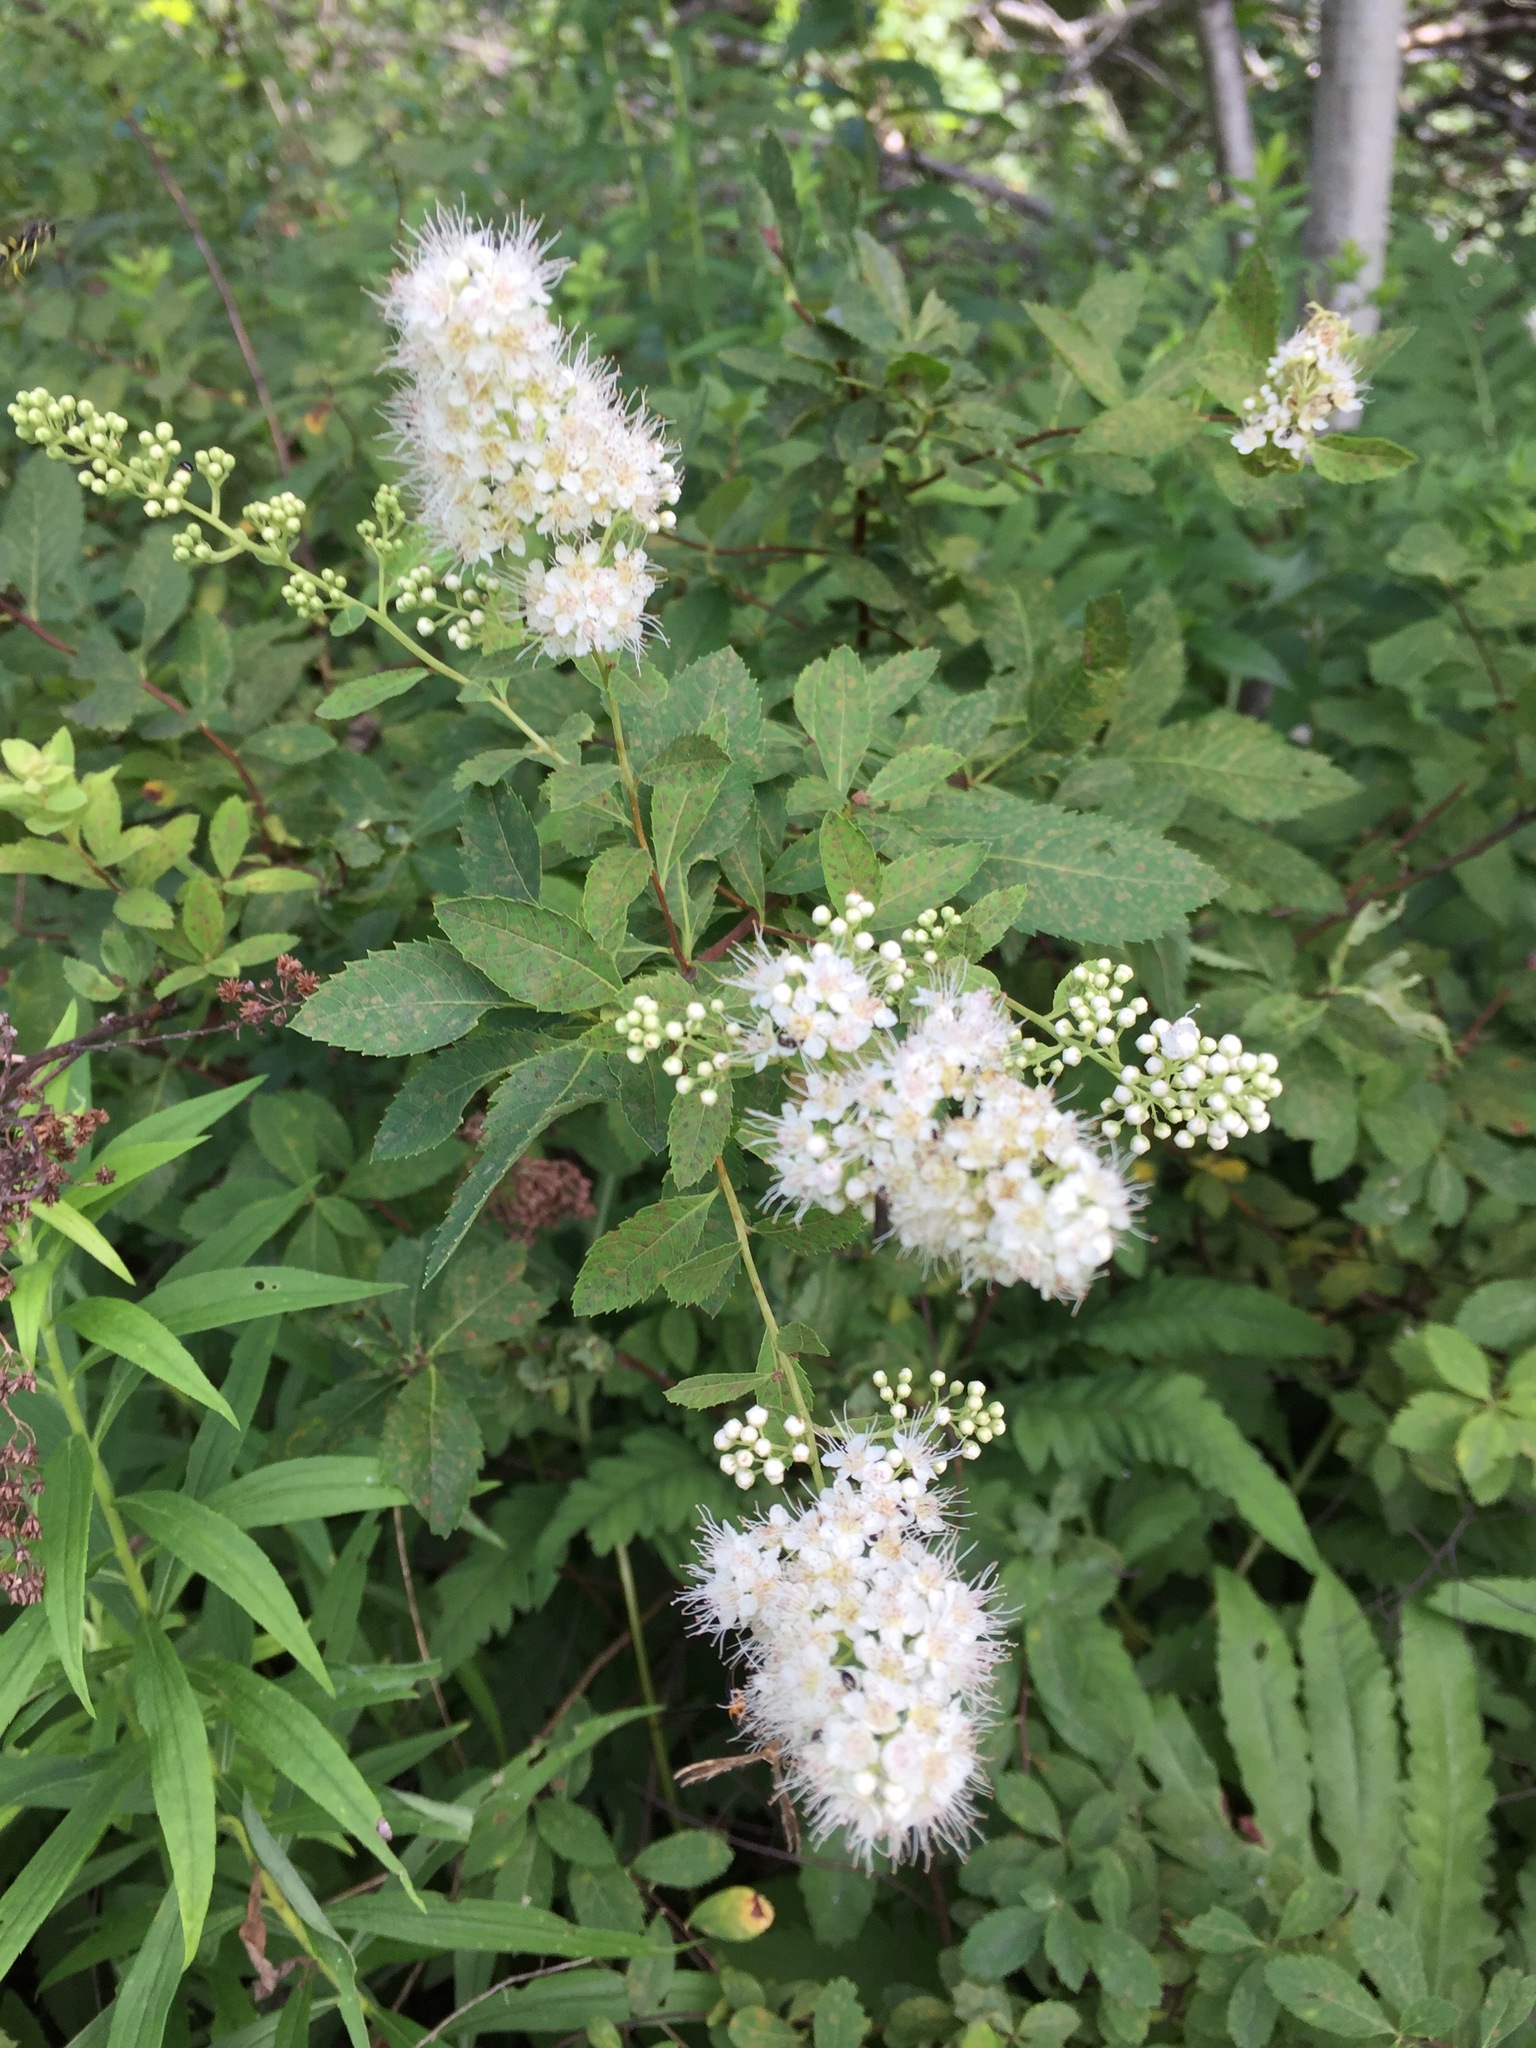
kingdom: Plantae
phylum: Tracheophyta
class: Magnoliopsida
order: Rosales
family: Rosaceae
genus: Spiraea
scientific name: Spiraea alba
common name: Pale bridewort
